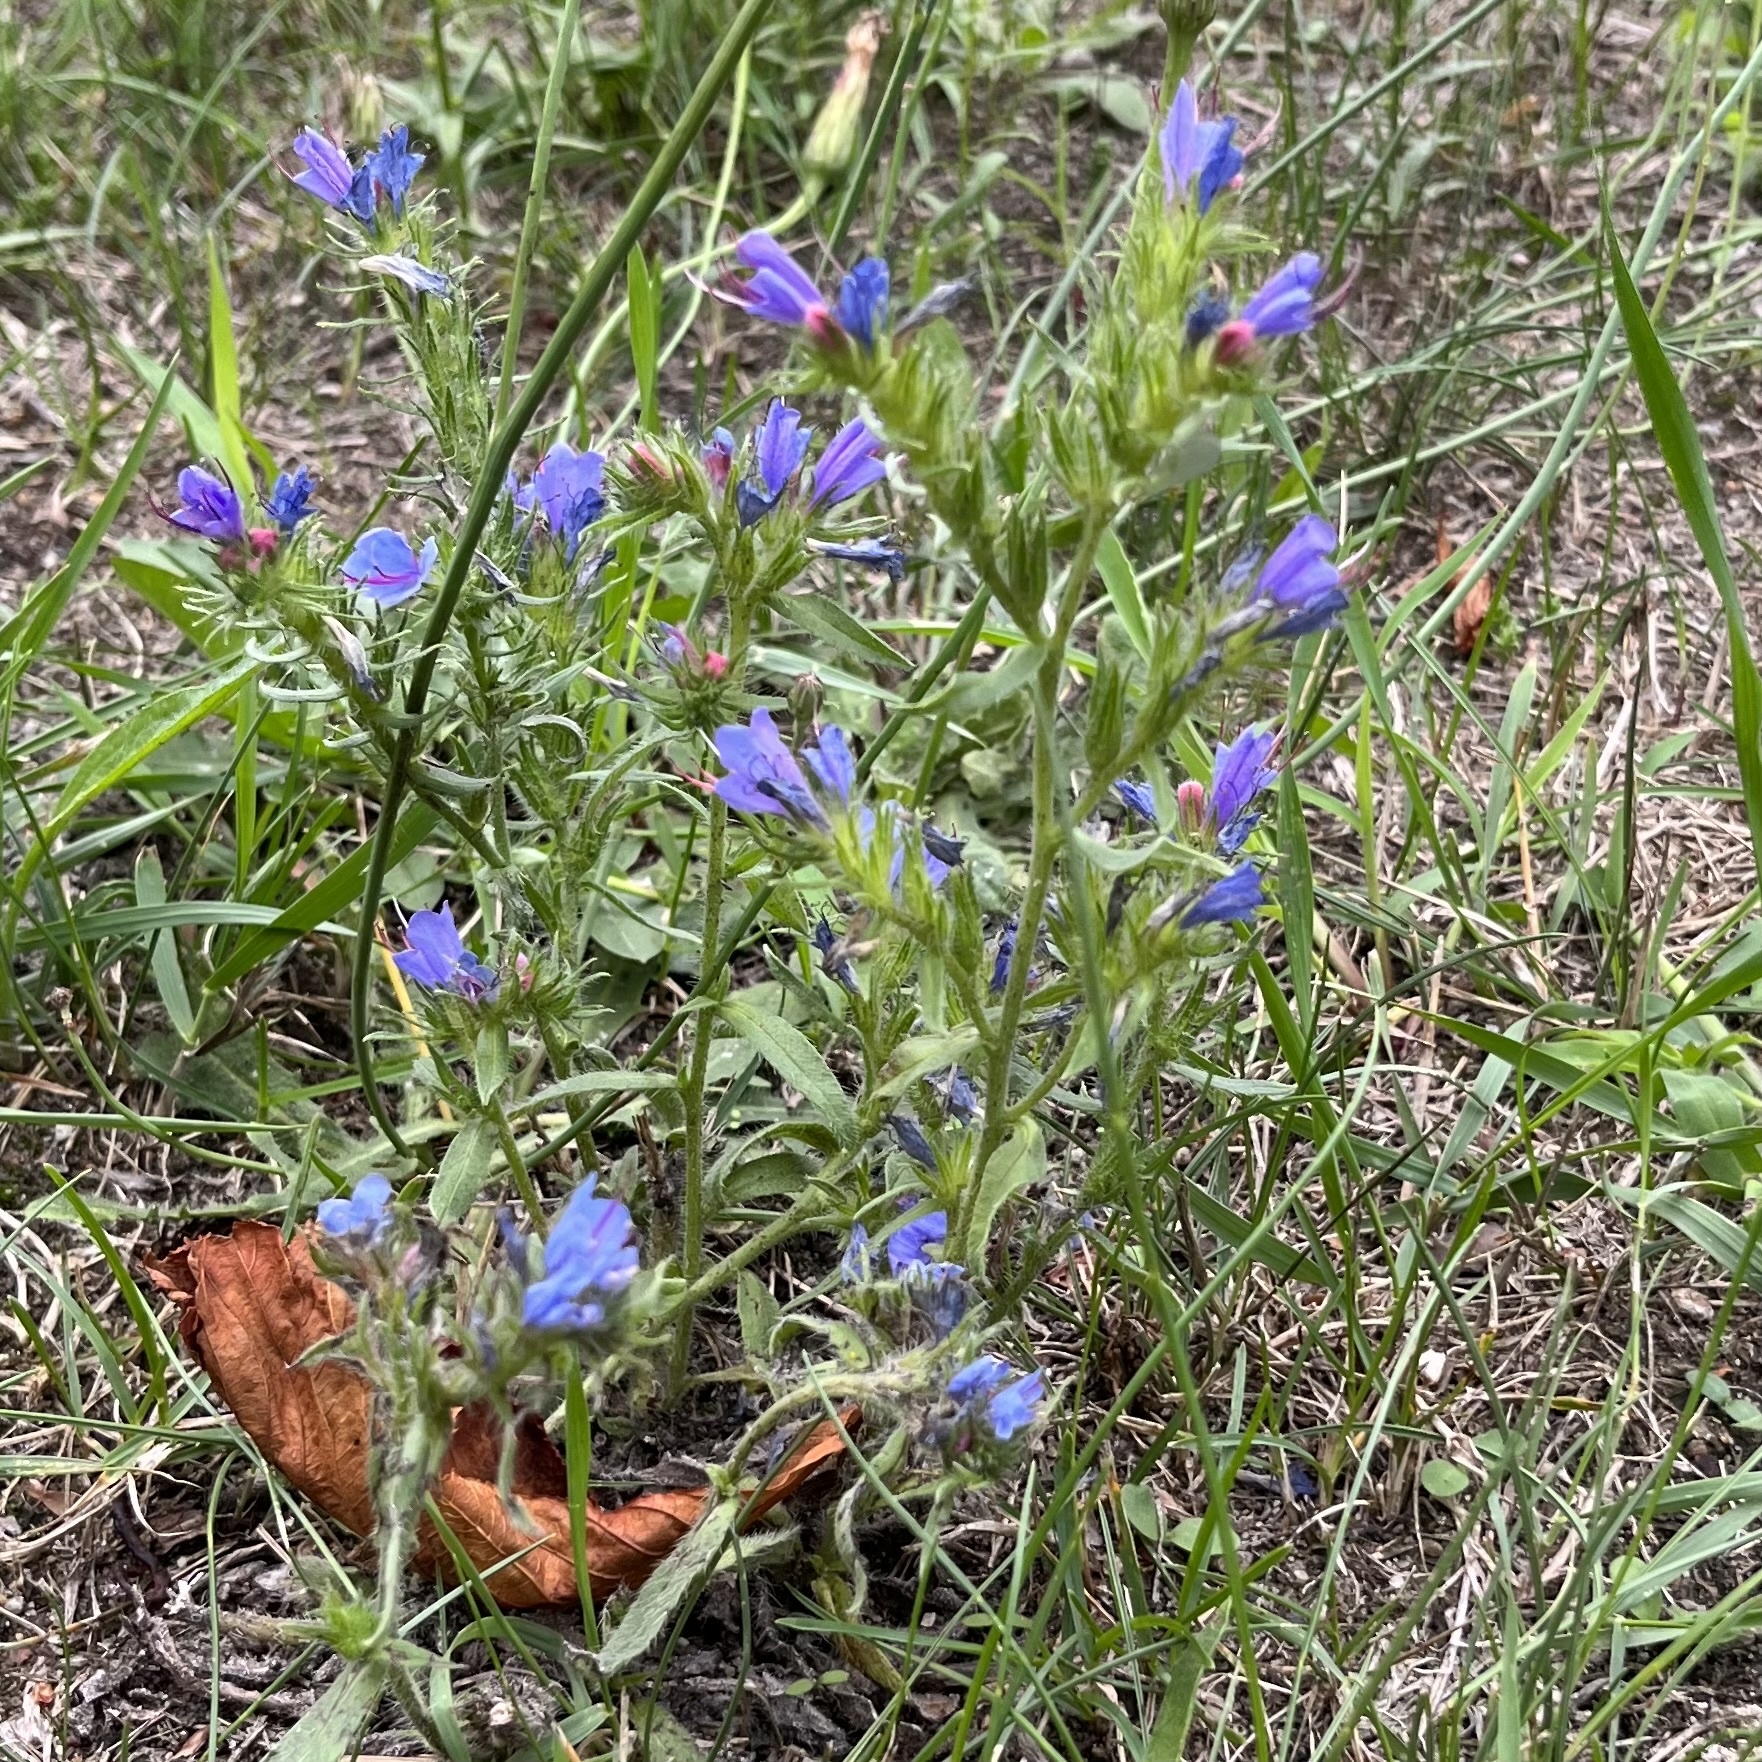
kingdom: Plantae
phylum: Tracheophyta
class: Magnoliopsida
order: Boraginales
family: Boraginaceae
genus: Echium
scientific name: Echium vulgare
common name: Common viper's bugloss
